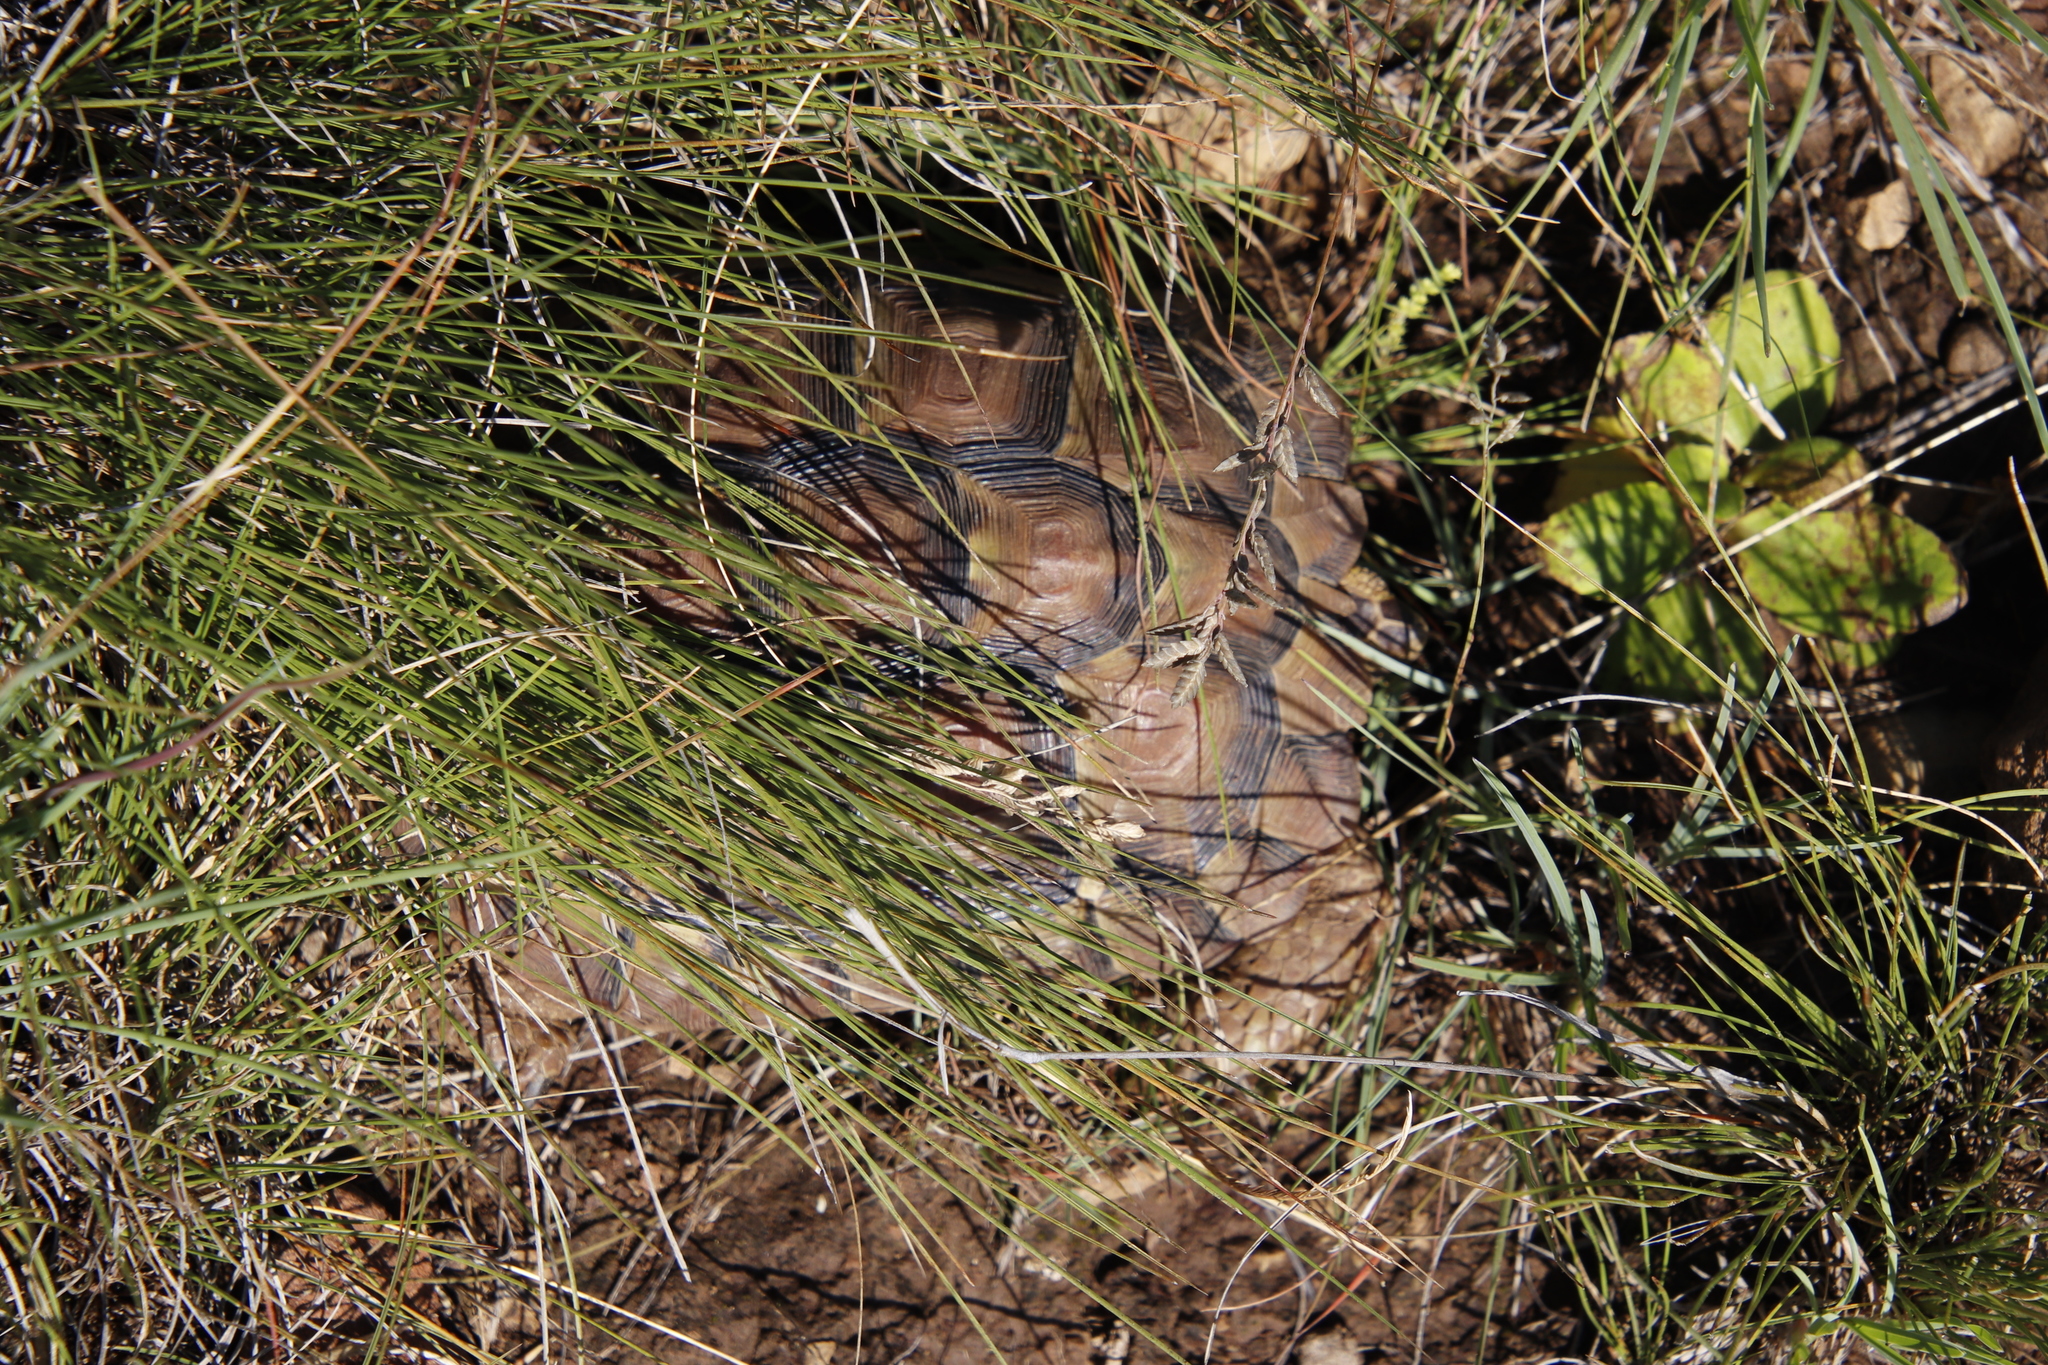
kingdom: Animalia
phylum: Chordata
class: Testudines
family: Testudinidae
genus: Homopus
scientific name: Homopus femoralis
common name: Greater dwarf tortoise
